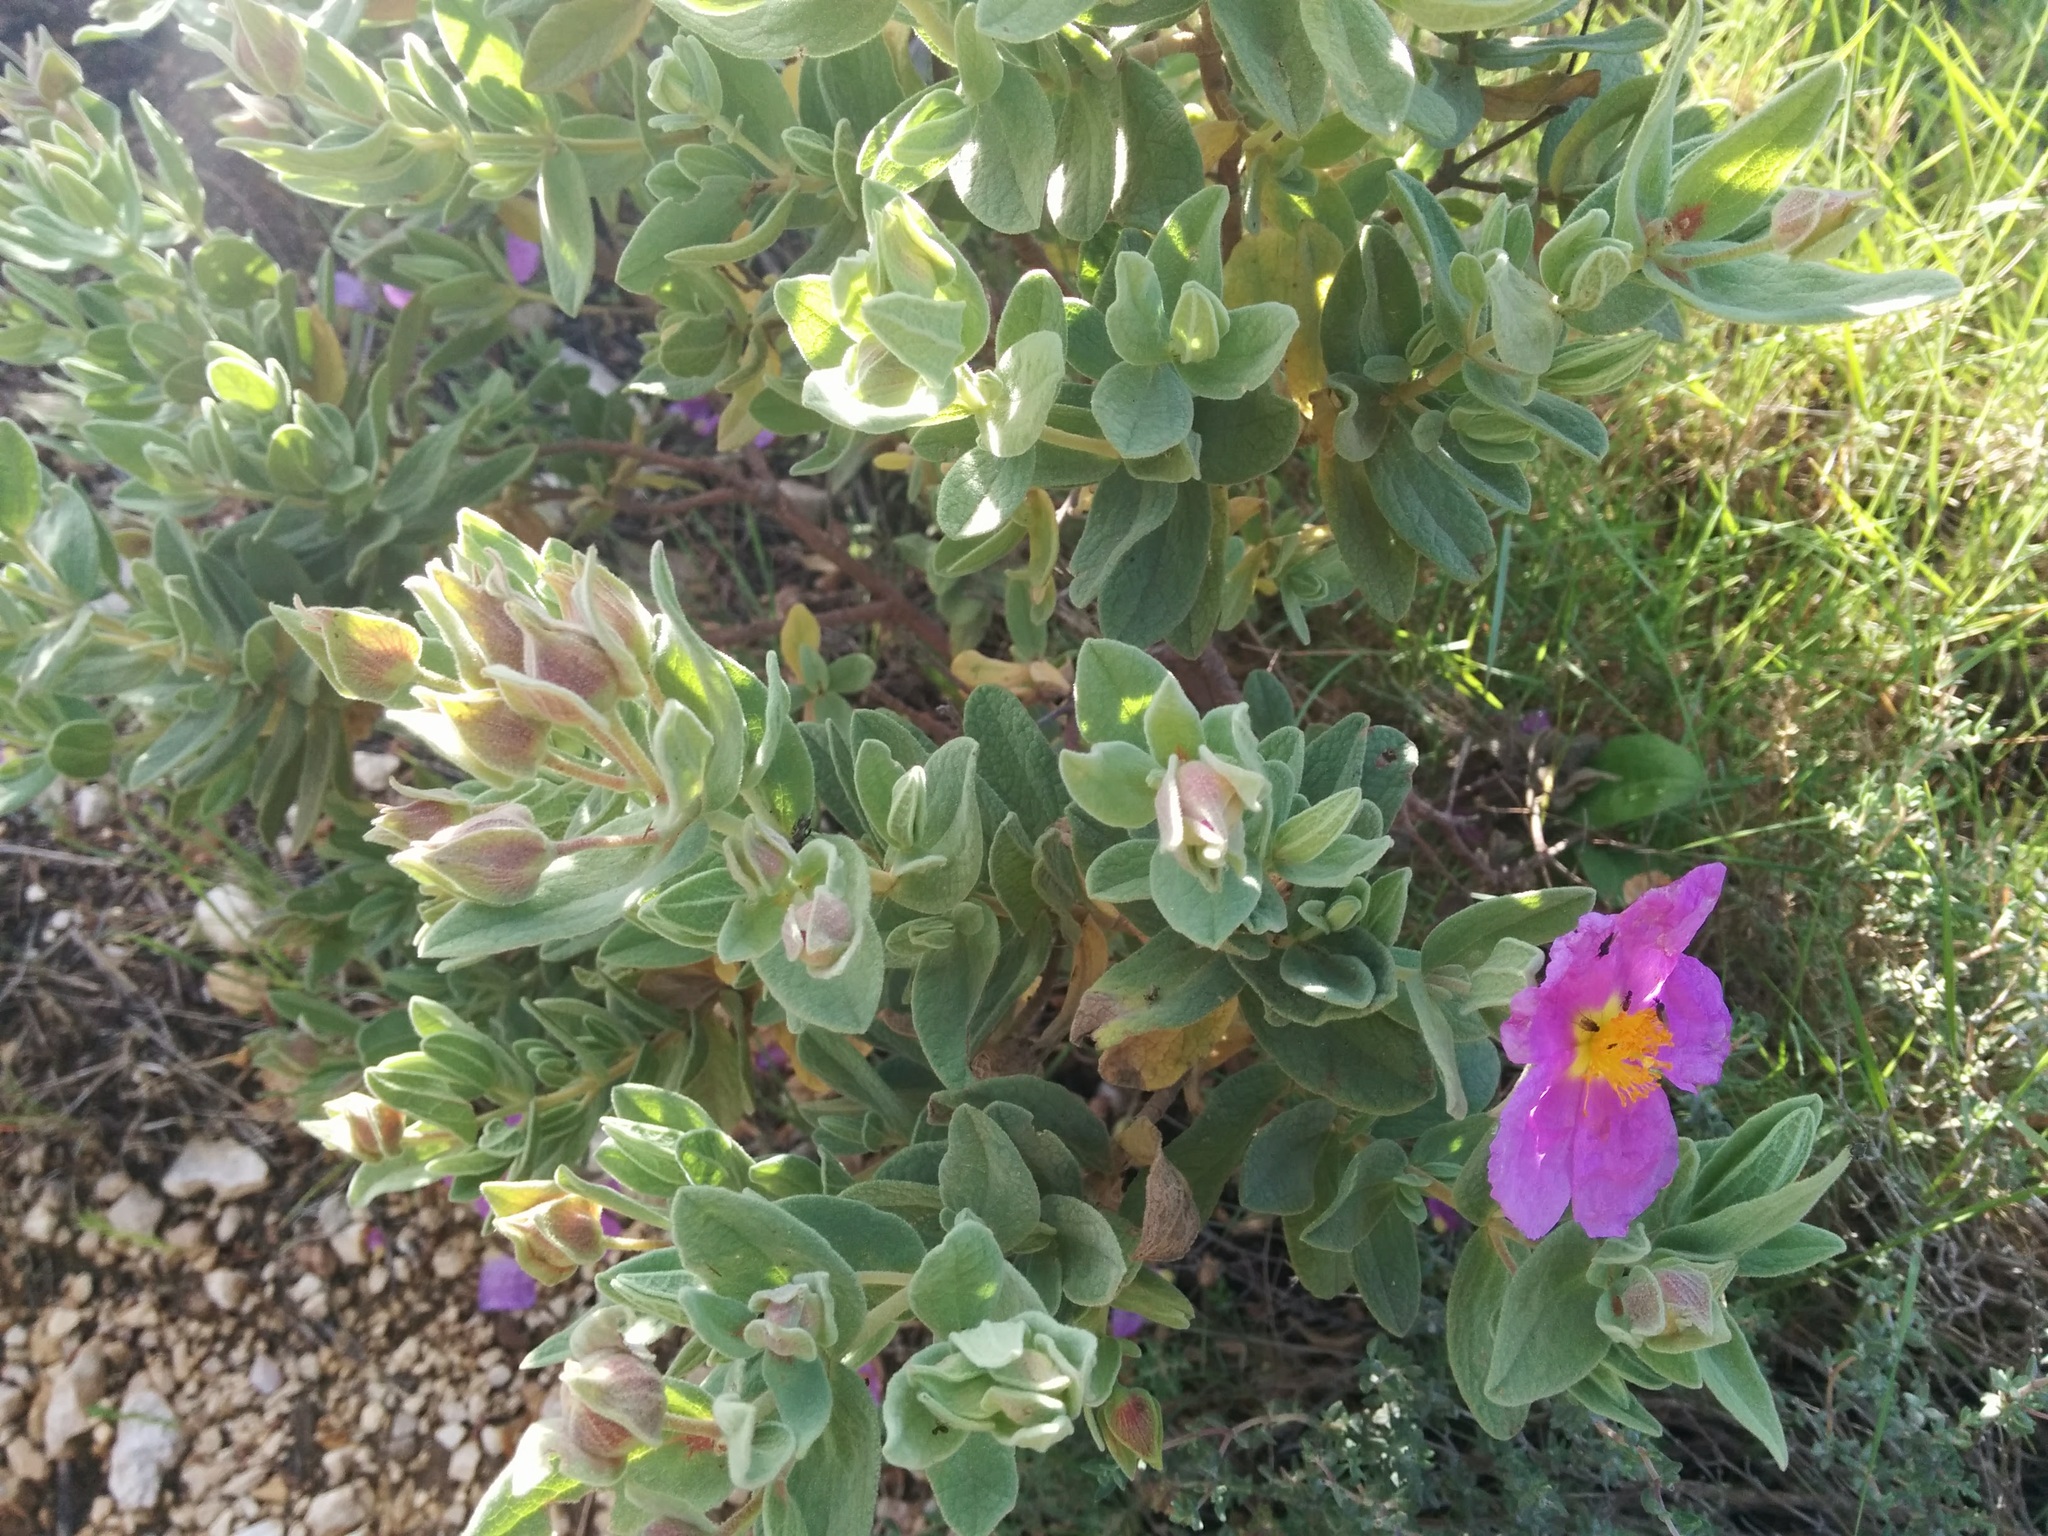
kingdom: Plantae
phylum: Tracheophyta
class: Magnoliopsida
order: Malvales
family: Cistaceae
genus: Cistus
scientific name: Cistus albidus
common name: White-leaf rock-rose
